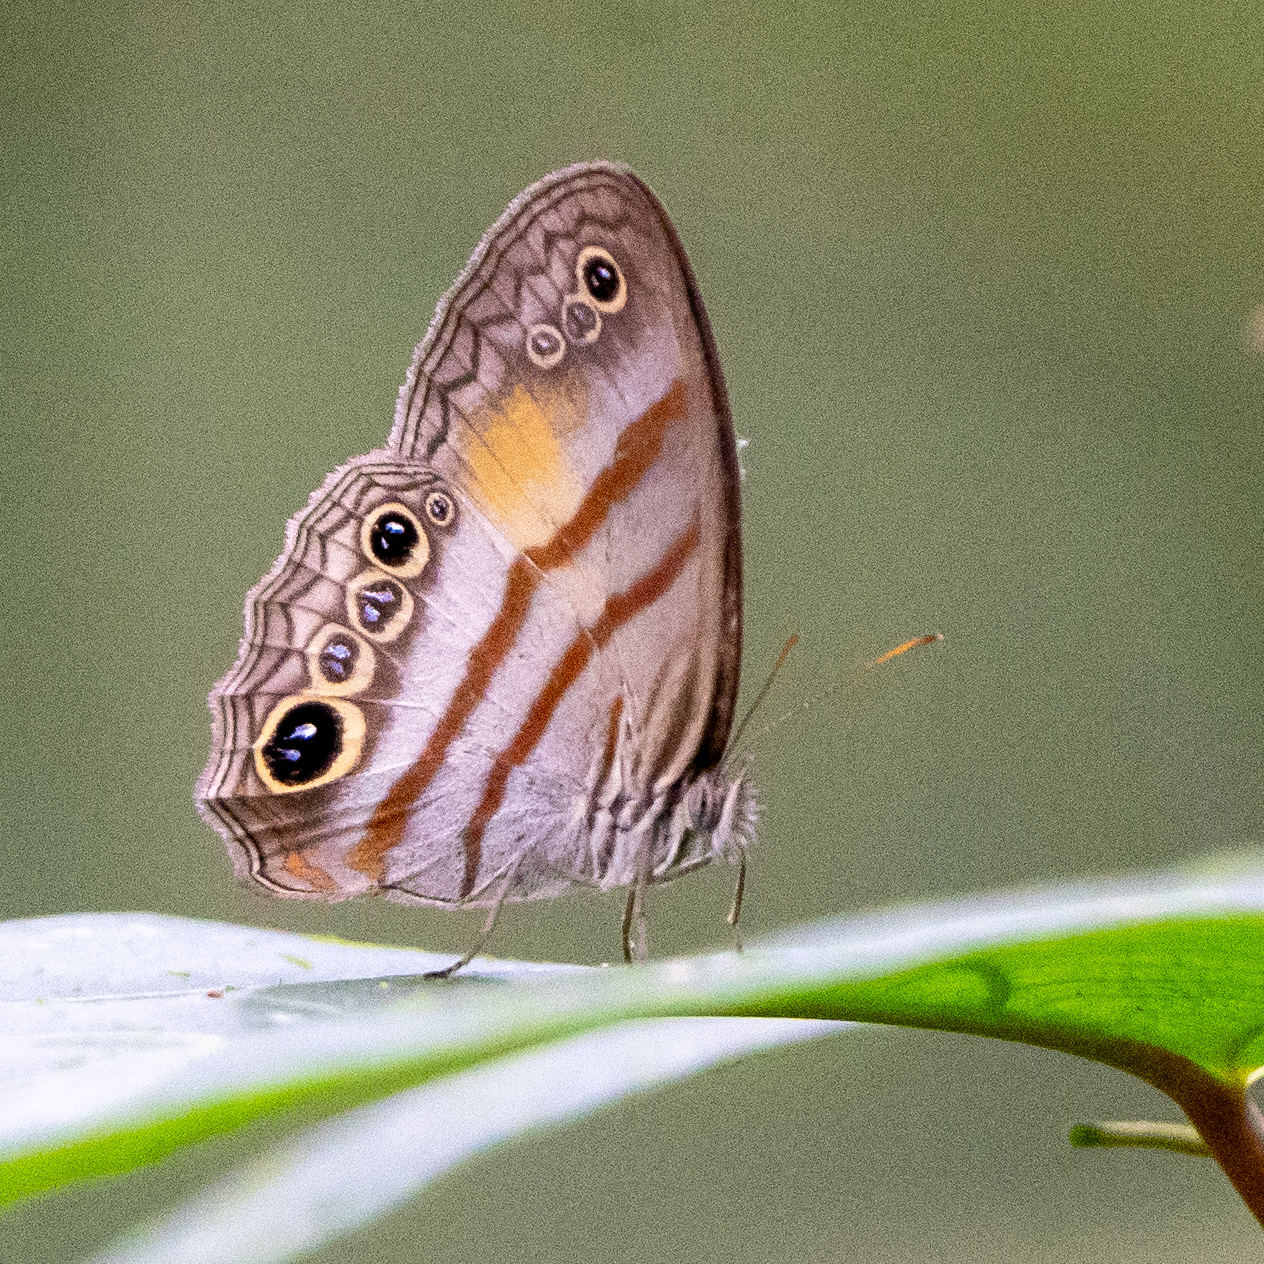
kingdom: Animalia
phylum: Arthropoda
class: Insecta
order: Lepidoptera
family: Nymphalidae
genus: Modica
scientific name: Modica
